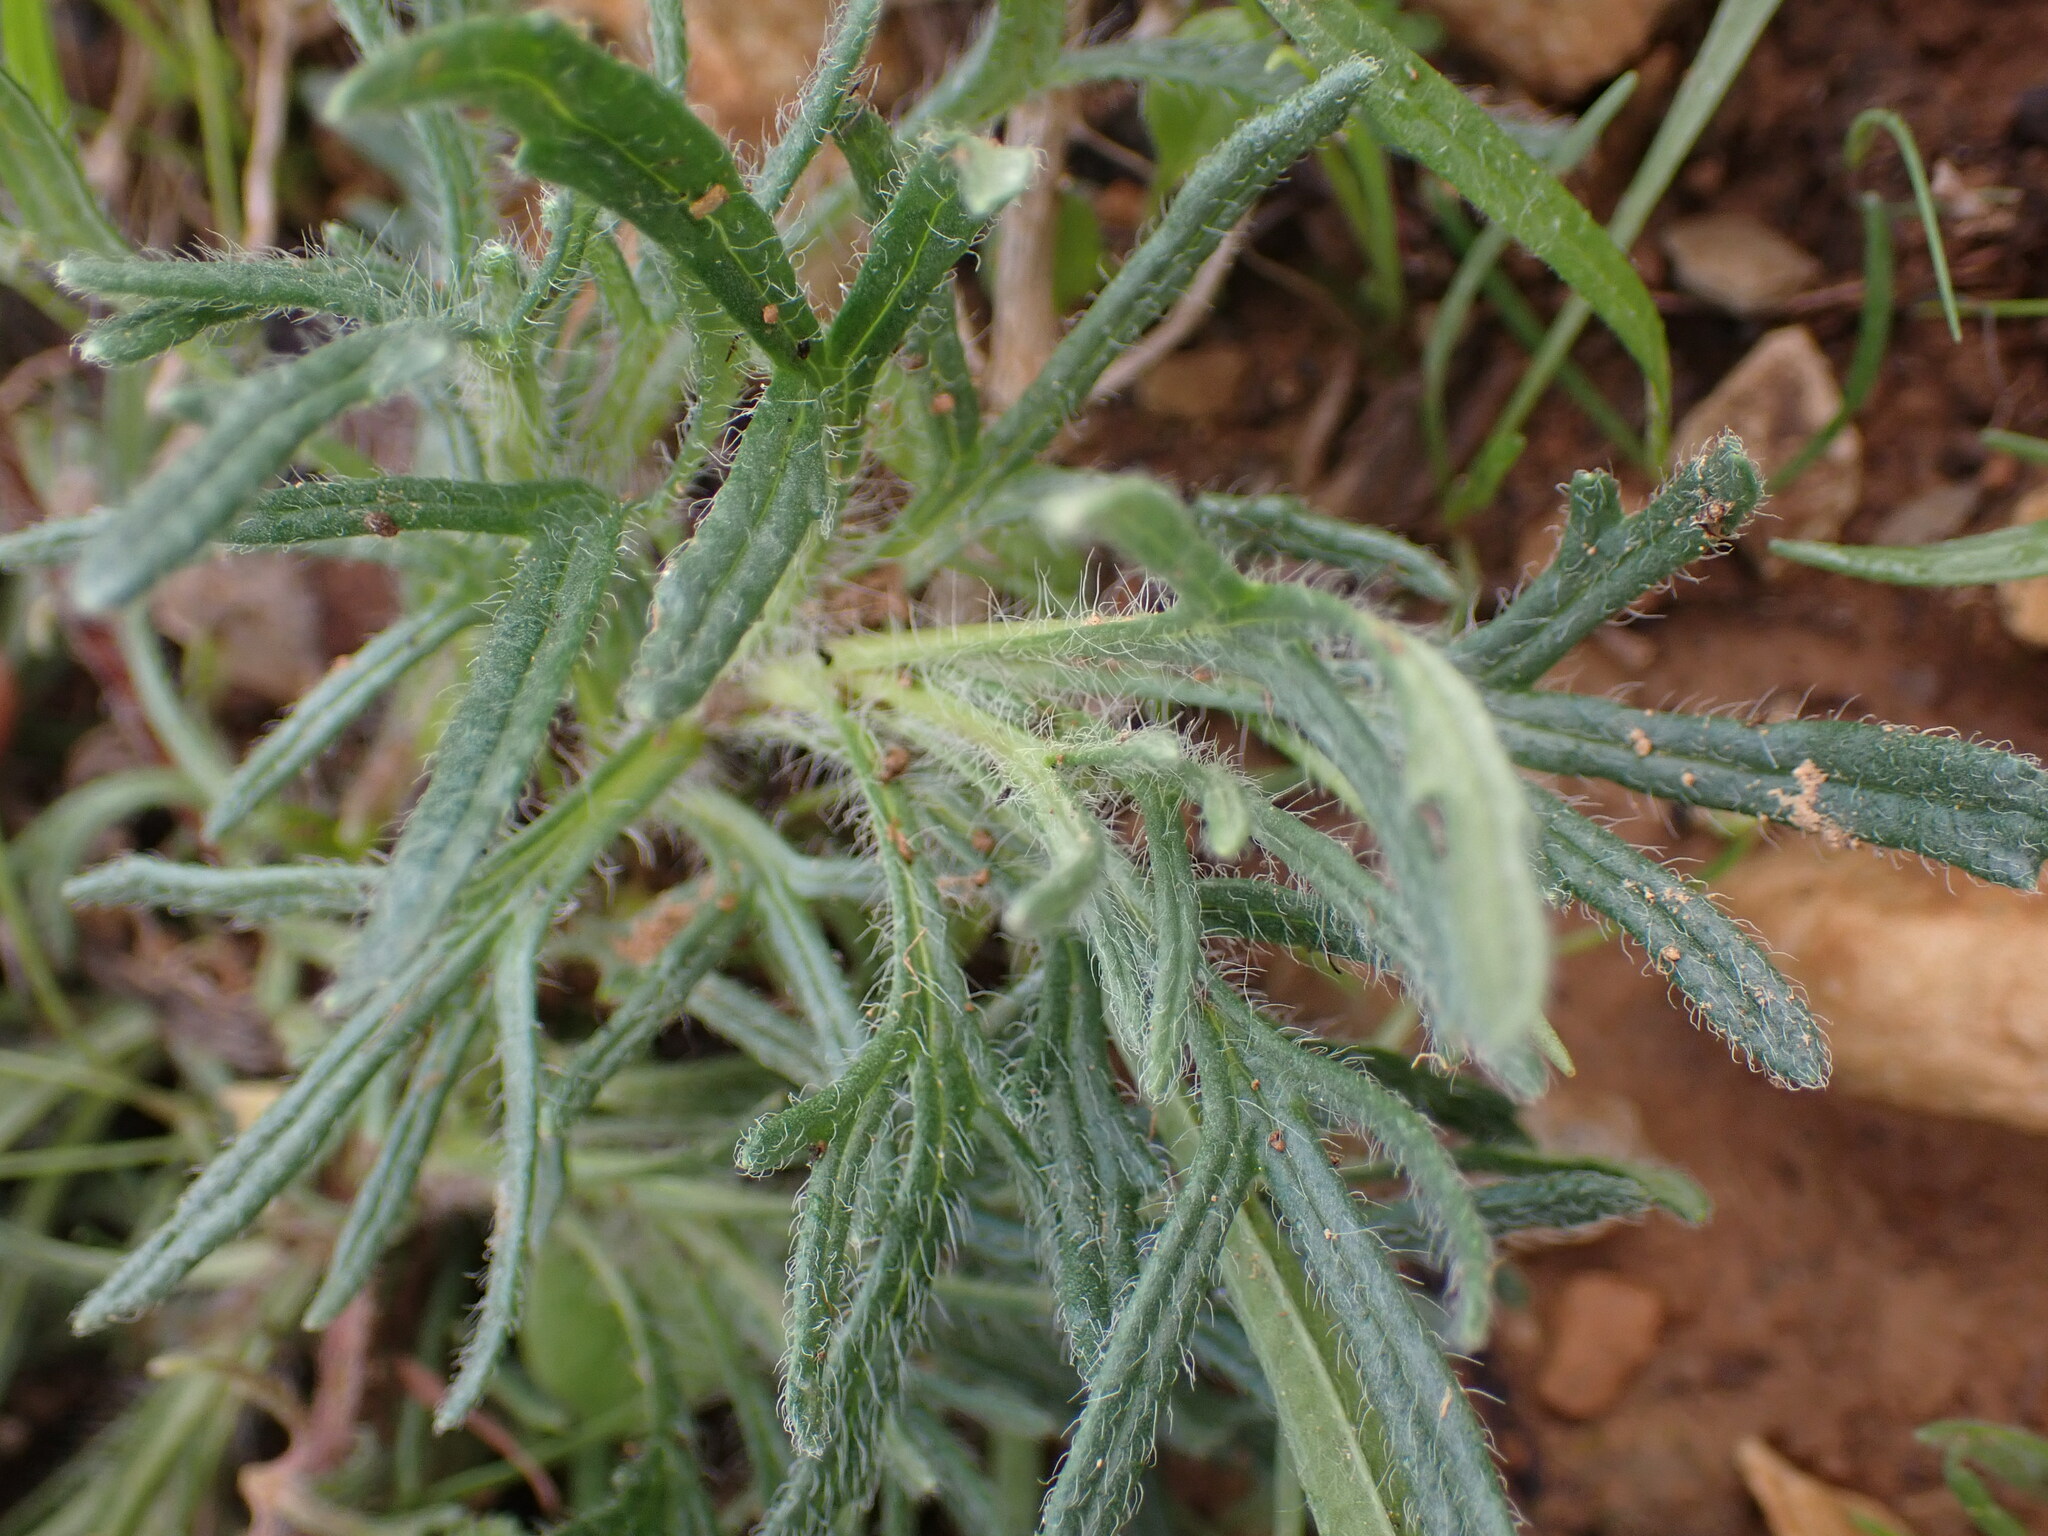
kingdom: Plantae
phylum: Tracheophyta
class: Magnoliopsida
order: Lamiales
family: Lamiaceae
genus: Ajuga
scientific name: Ajuga chamaepitys
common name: Ground-pine
